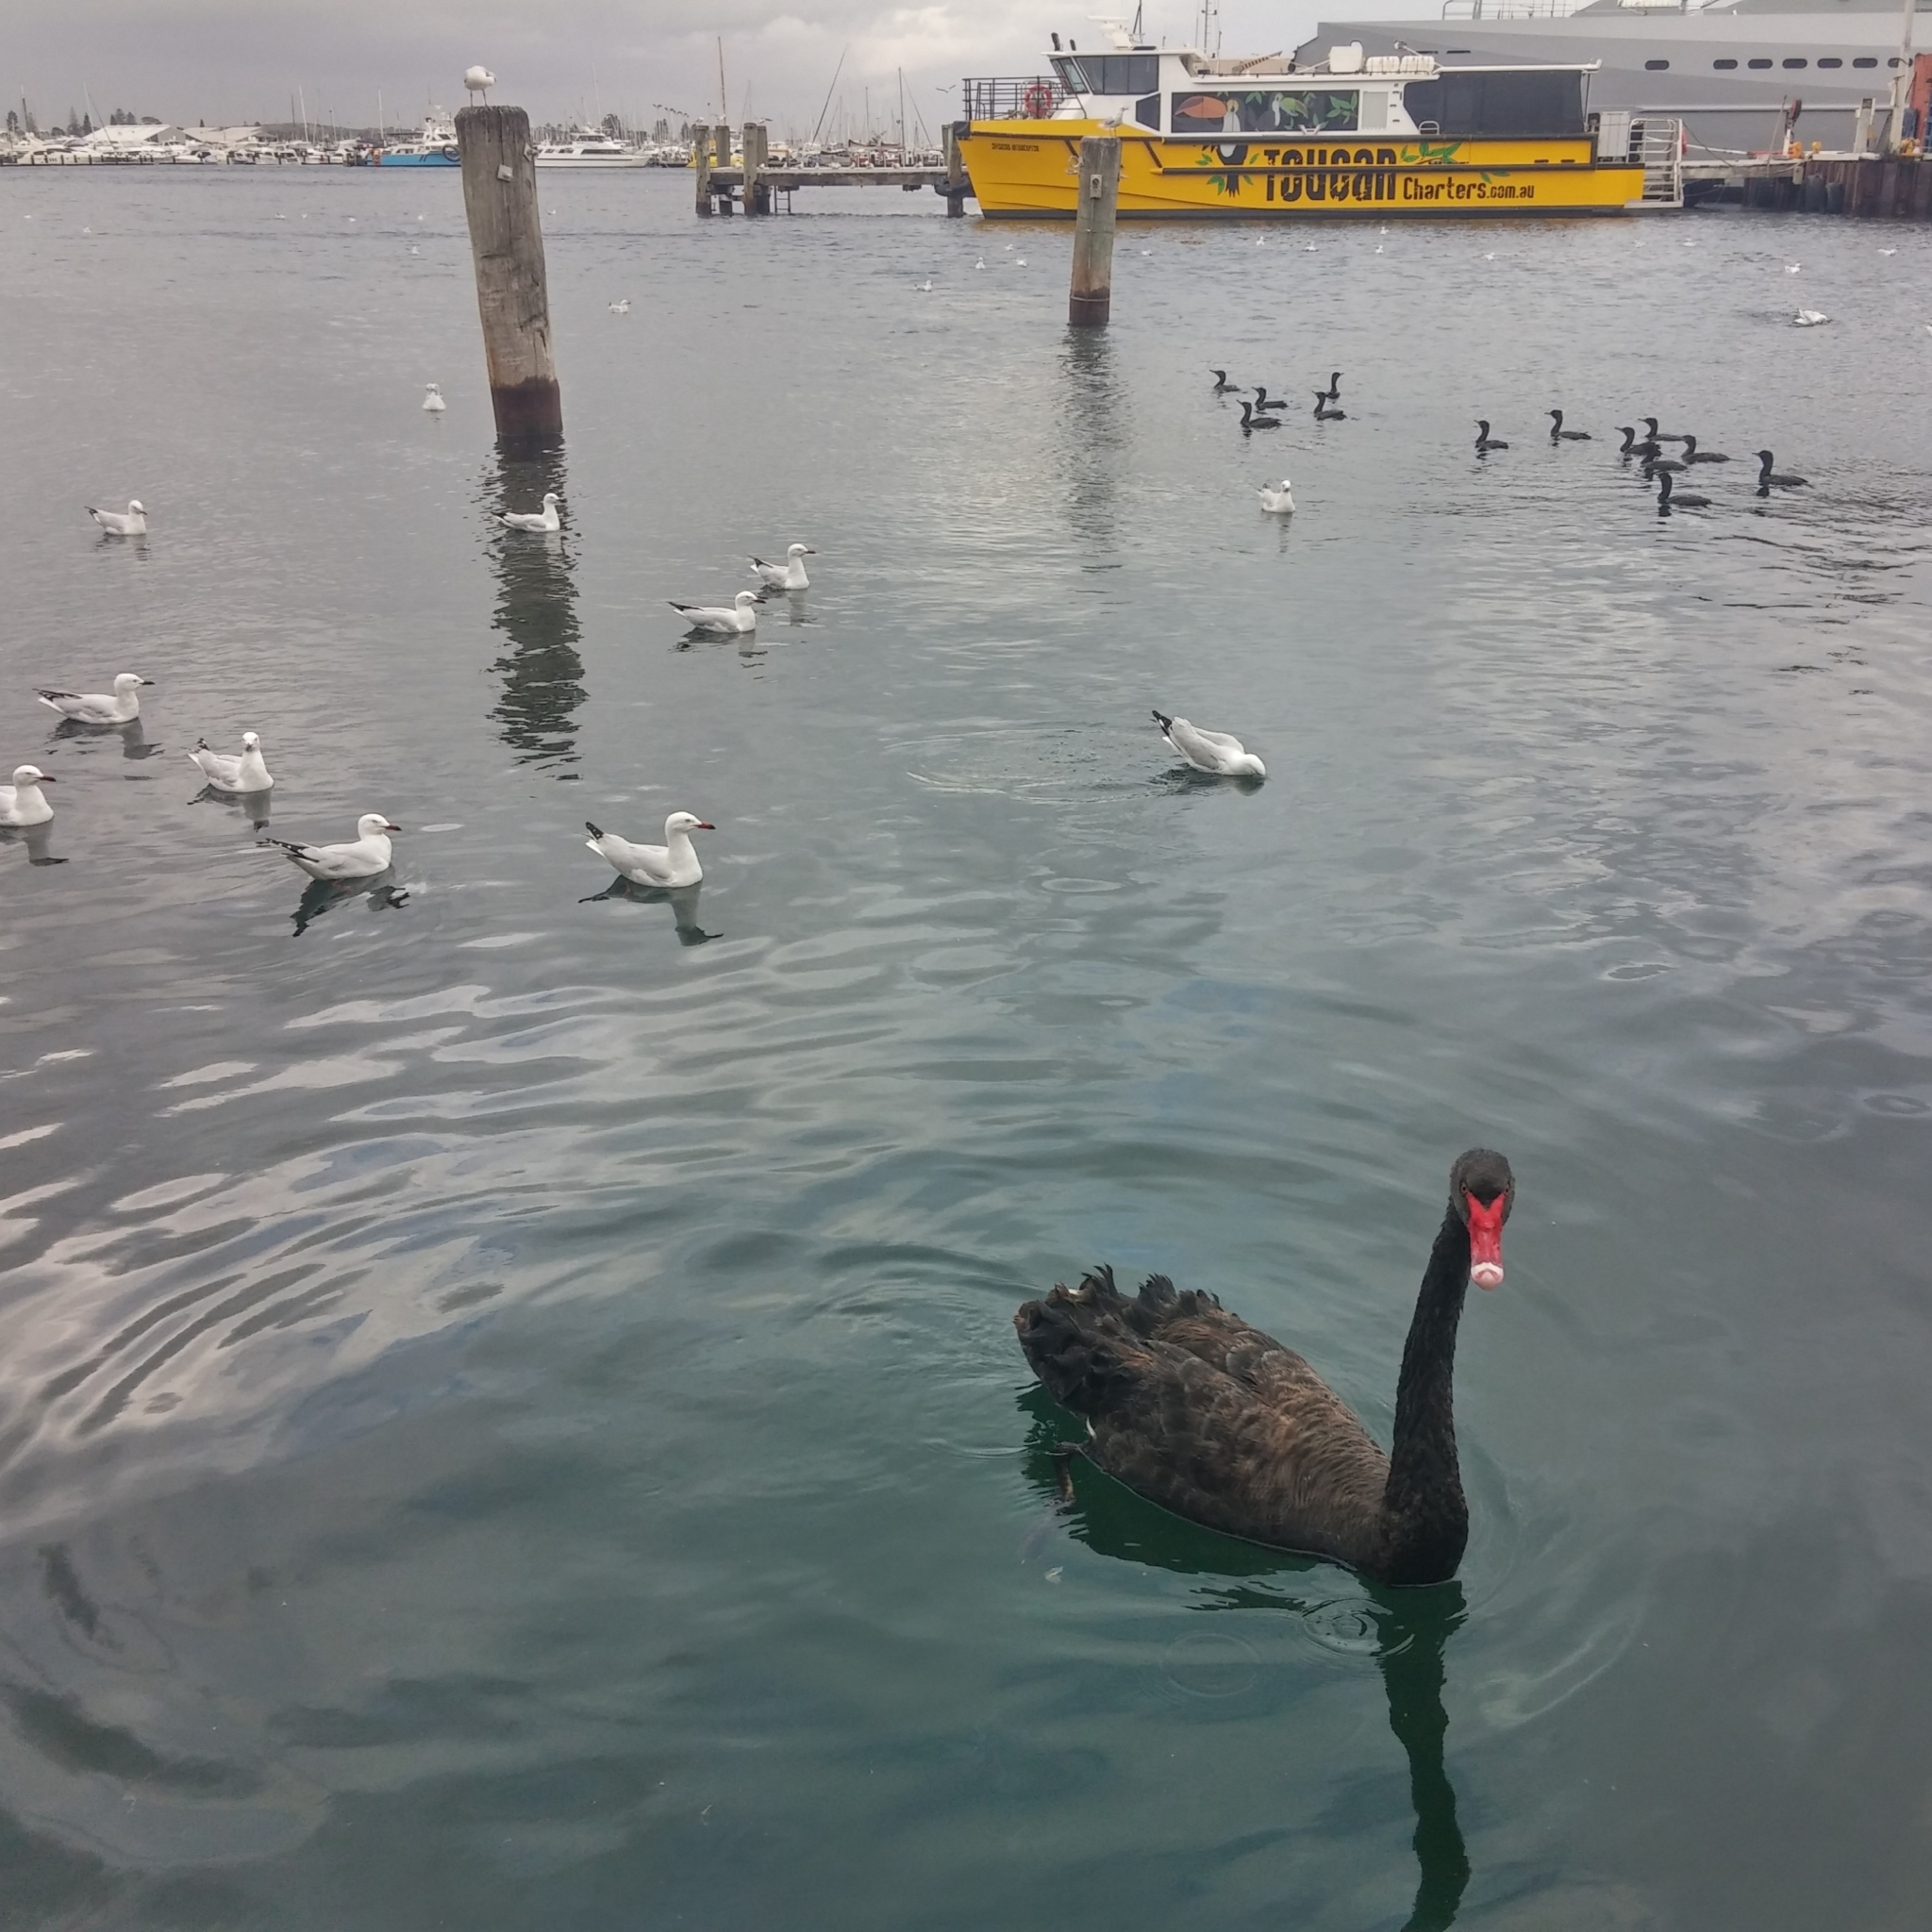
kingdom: Animalia
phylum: Chordata
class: Aves
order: Suliformes
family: Phalacrocoracidae
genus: Phalacrocorax
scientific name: Phalacrocorax sulcirostris
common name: Little black cormorant
